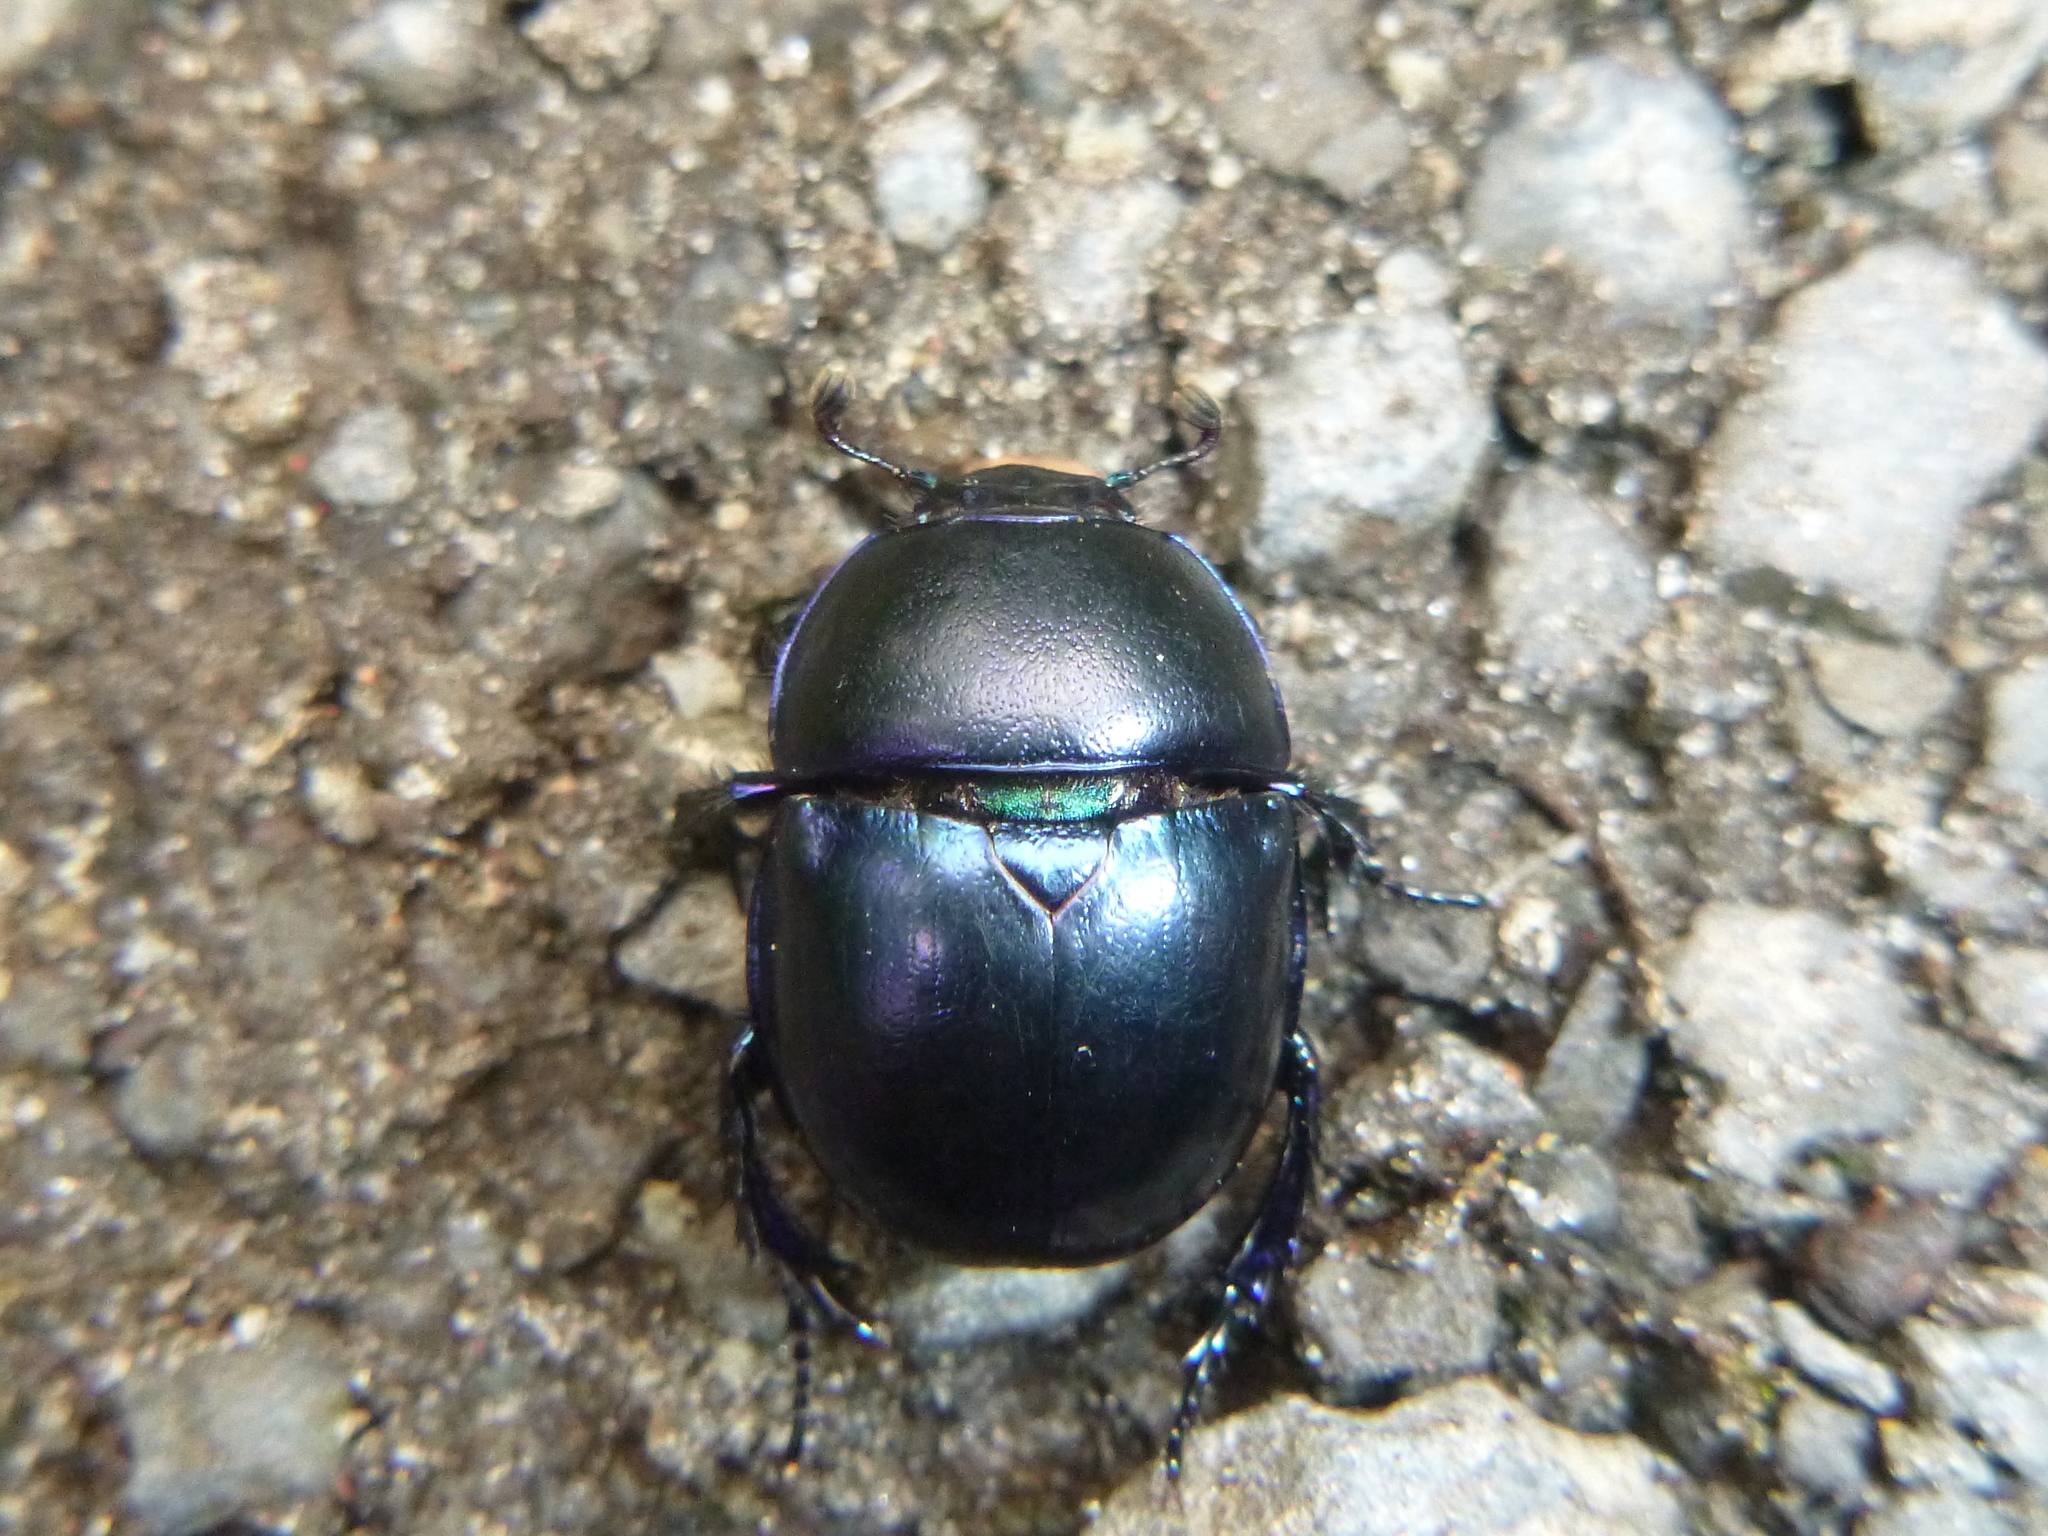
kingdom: Animalia
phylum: Arthropoda
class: Insecta
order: Coleoptera
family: Geotrupidae
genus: Trypocopris
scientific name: Trypocopris vernalis
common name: Spring dumbledor
